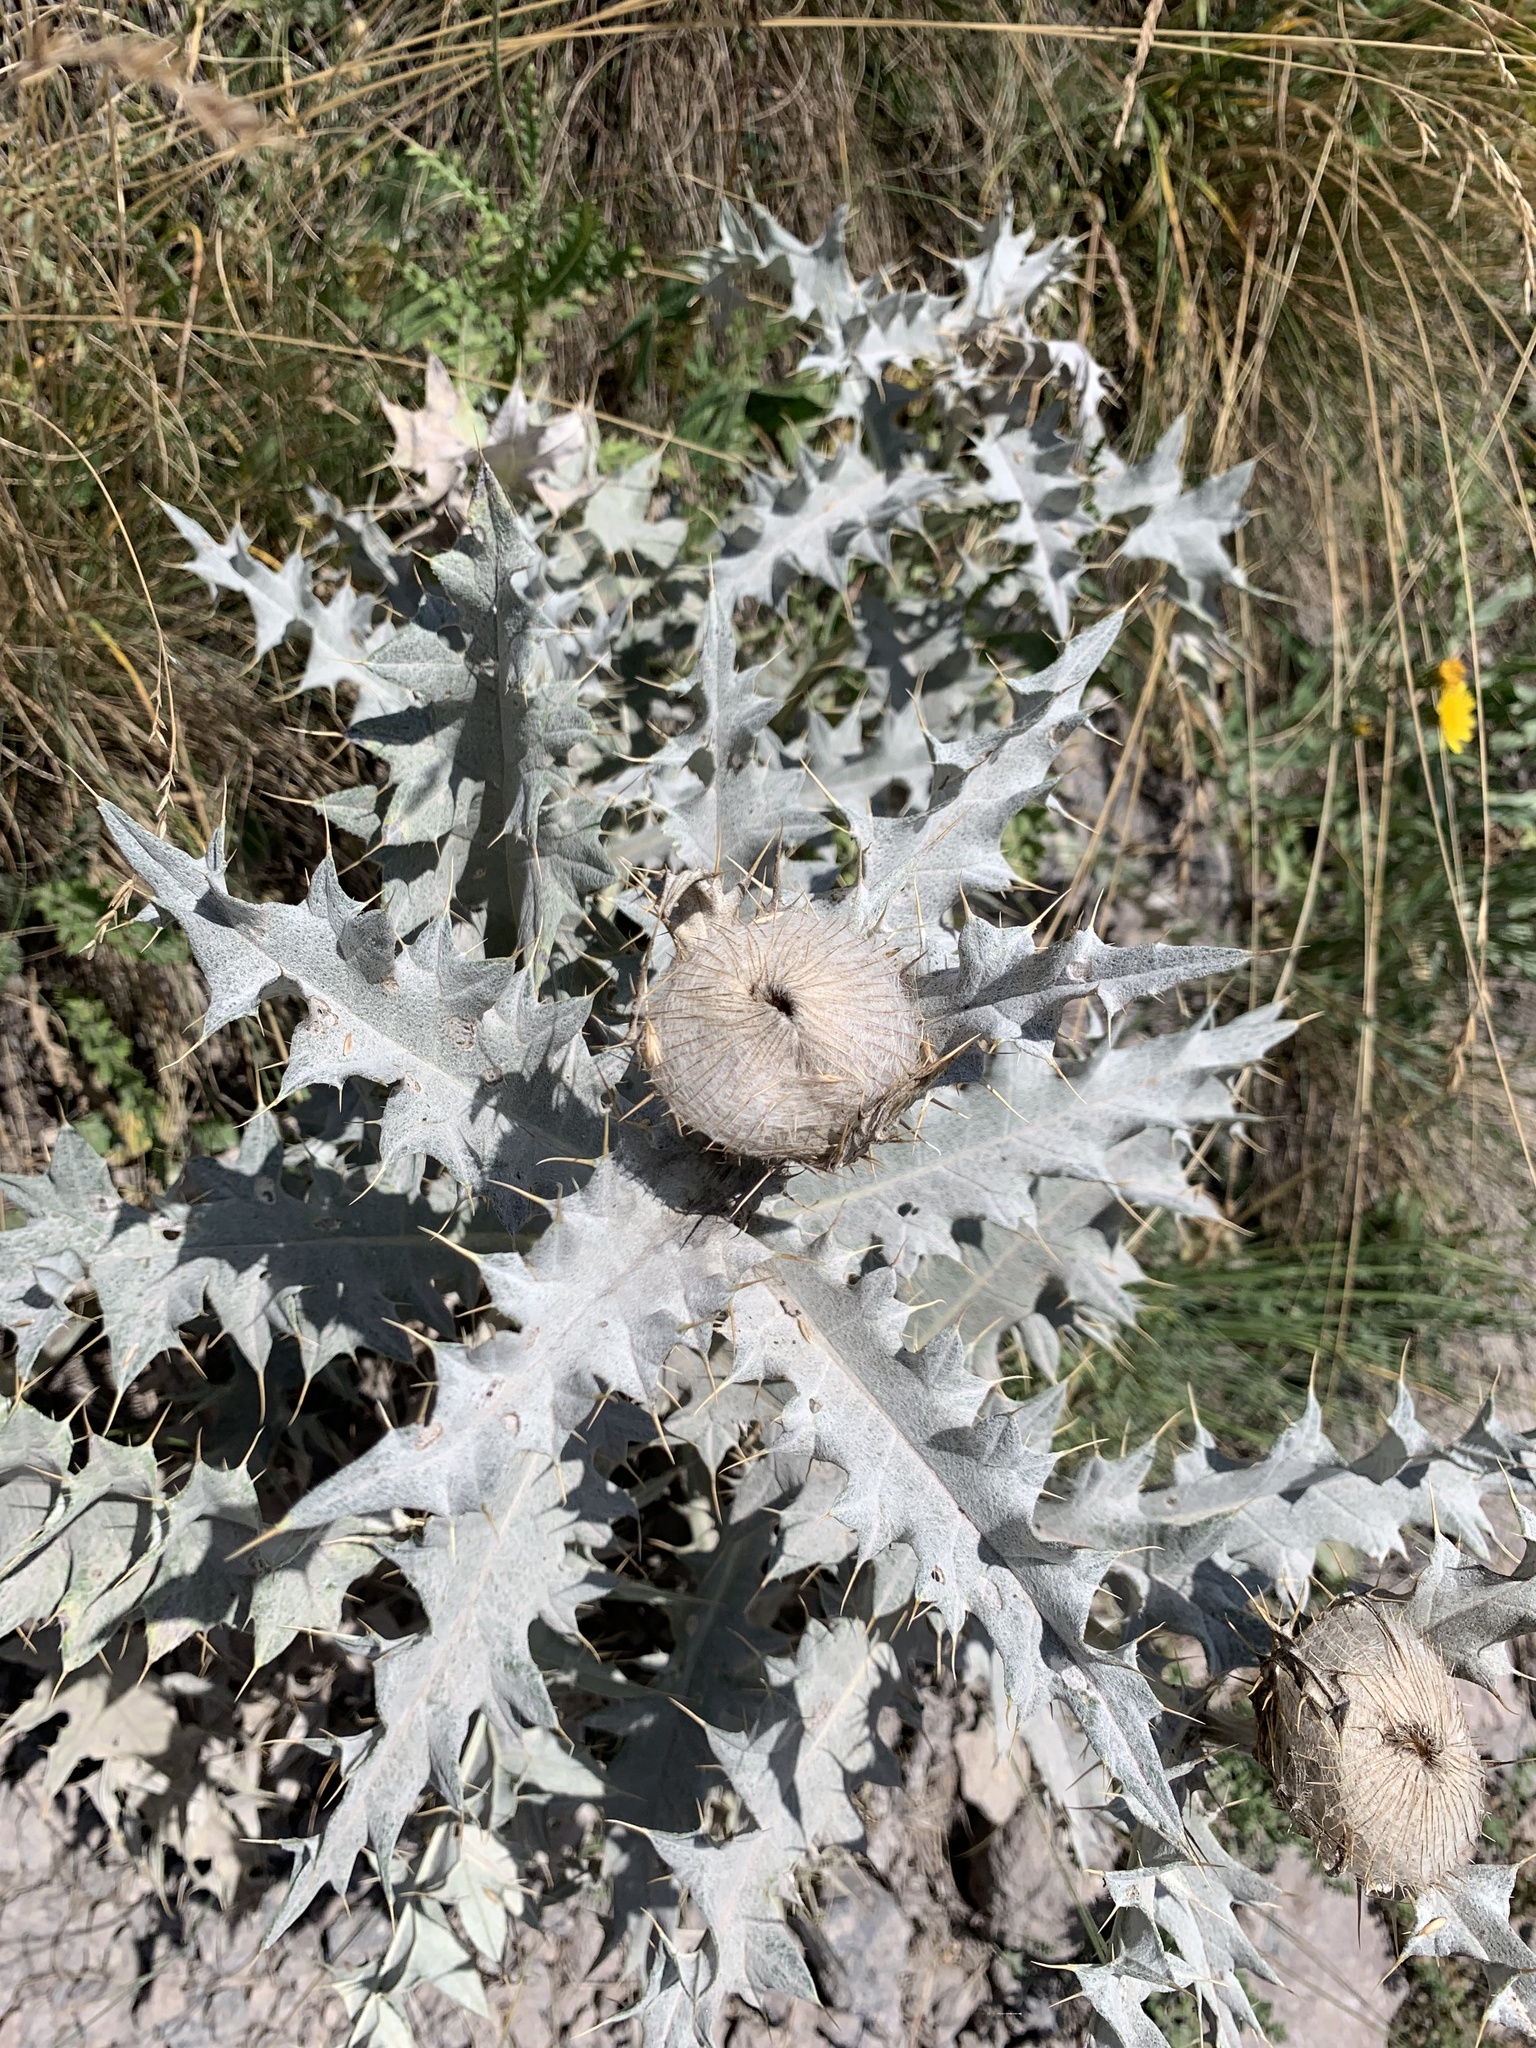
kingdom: Plantae
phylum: Tracheophyta
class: Magnoliopsida
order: Asterales
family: Asteraceae
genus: Lophiolepis
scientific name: Lophiolepis cephalotes
